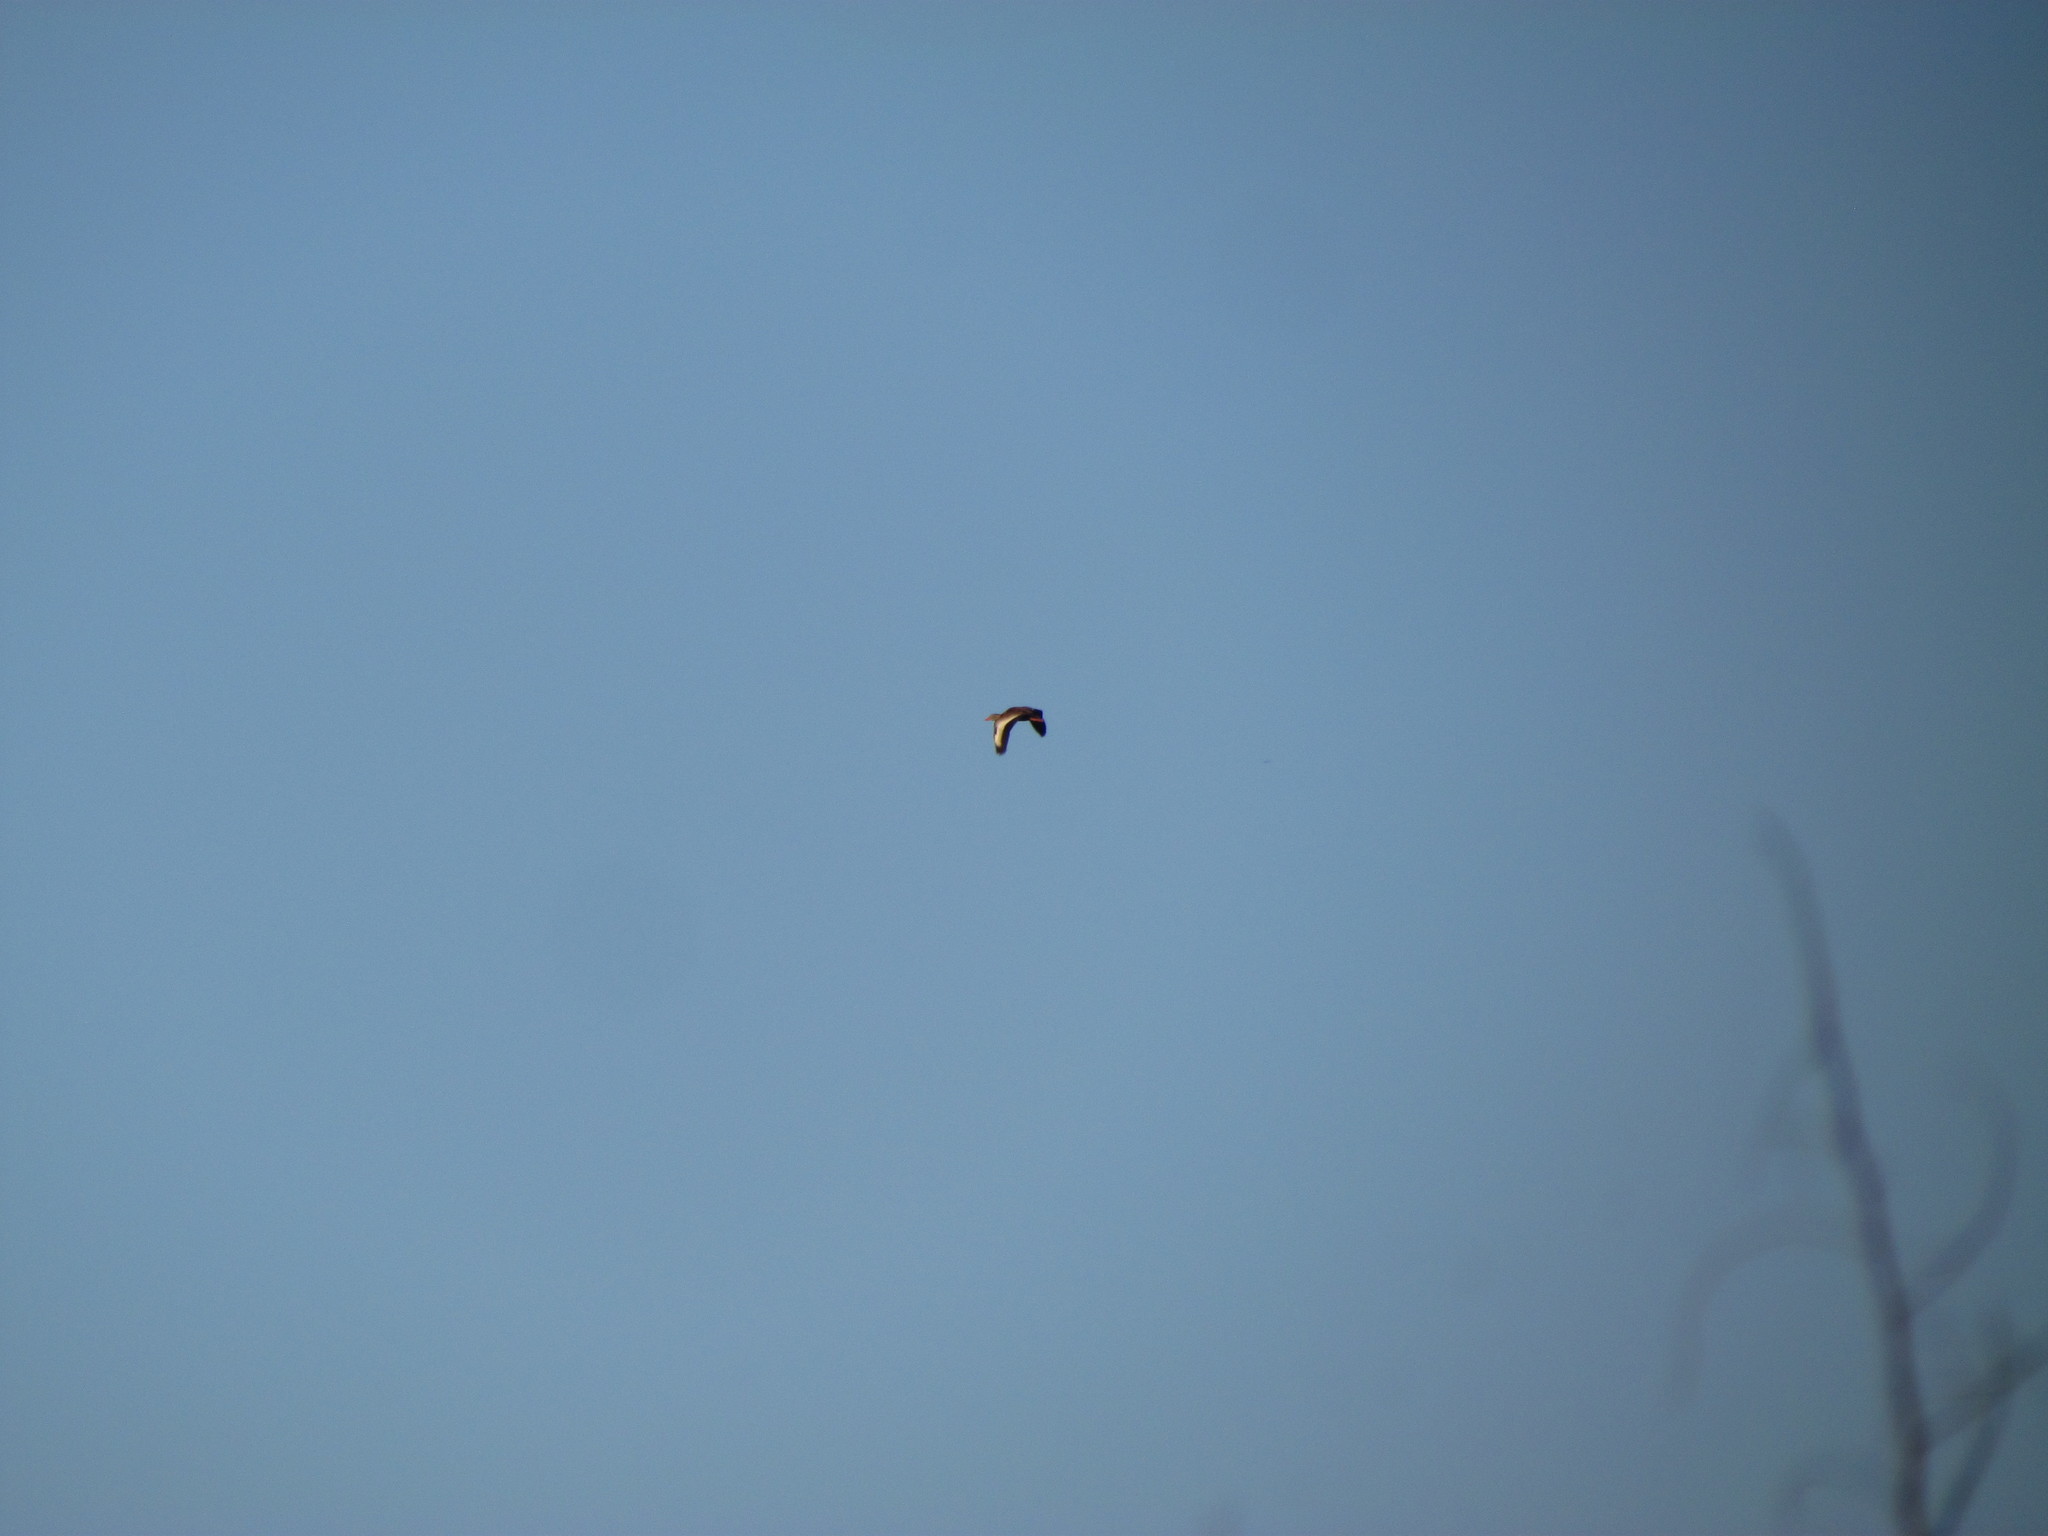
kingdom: Animalia
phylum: Chordata
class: Aves
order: Anseriformes
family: Anatidae
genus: Dendrocygna
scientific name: Dendrocygna autumnalis
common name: Black-bellied whistling duck
